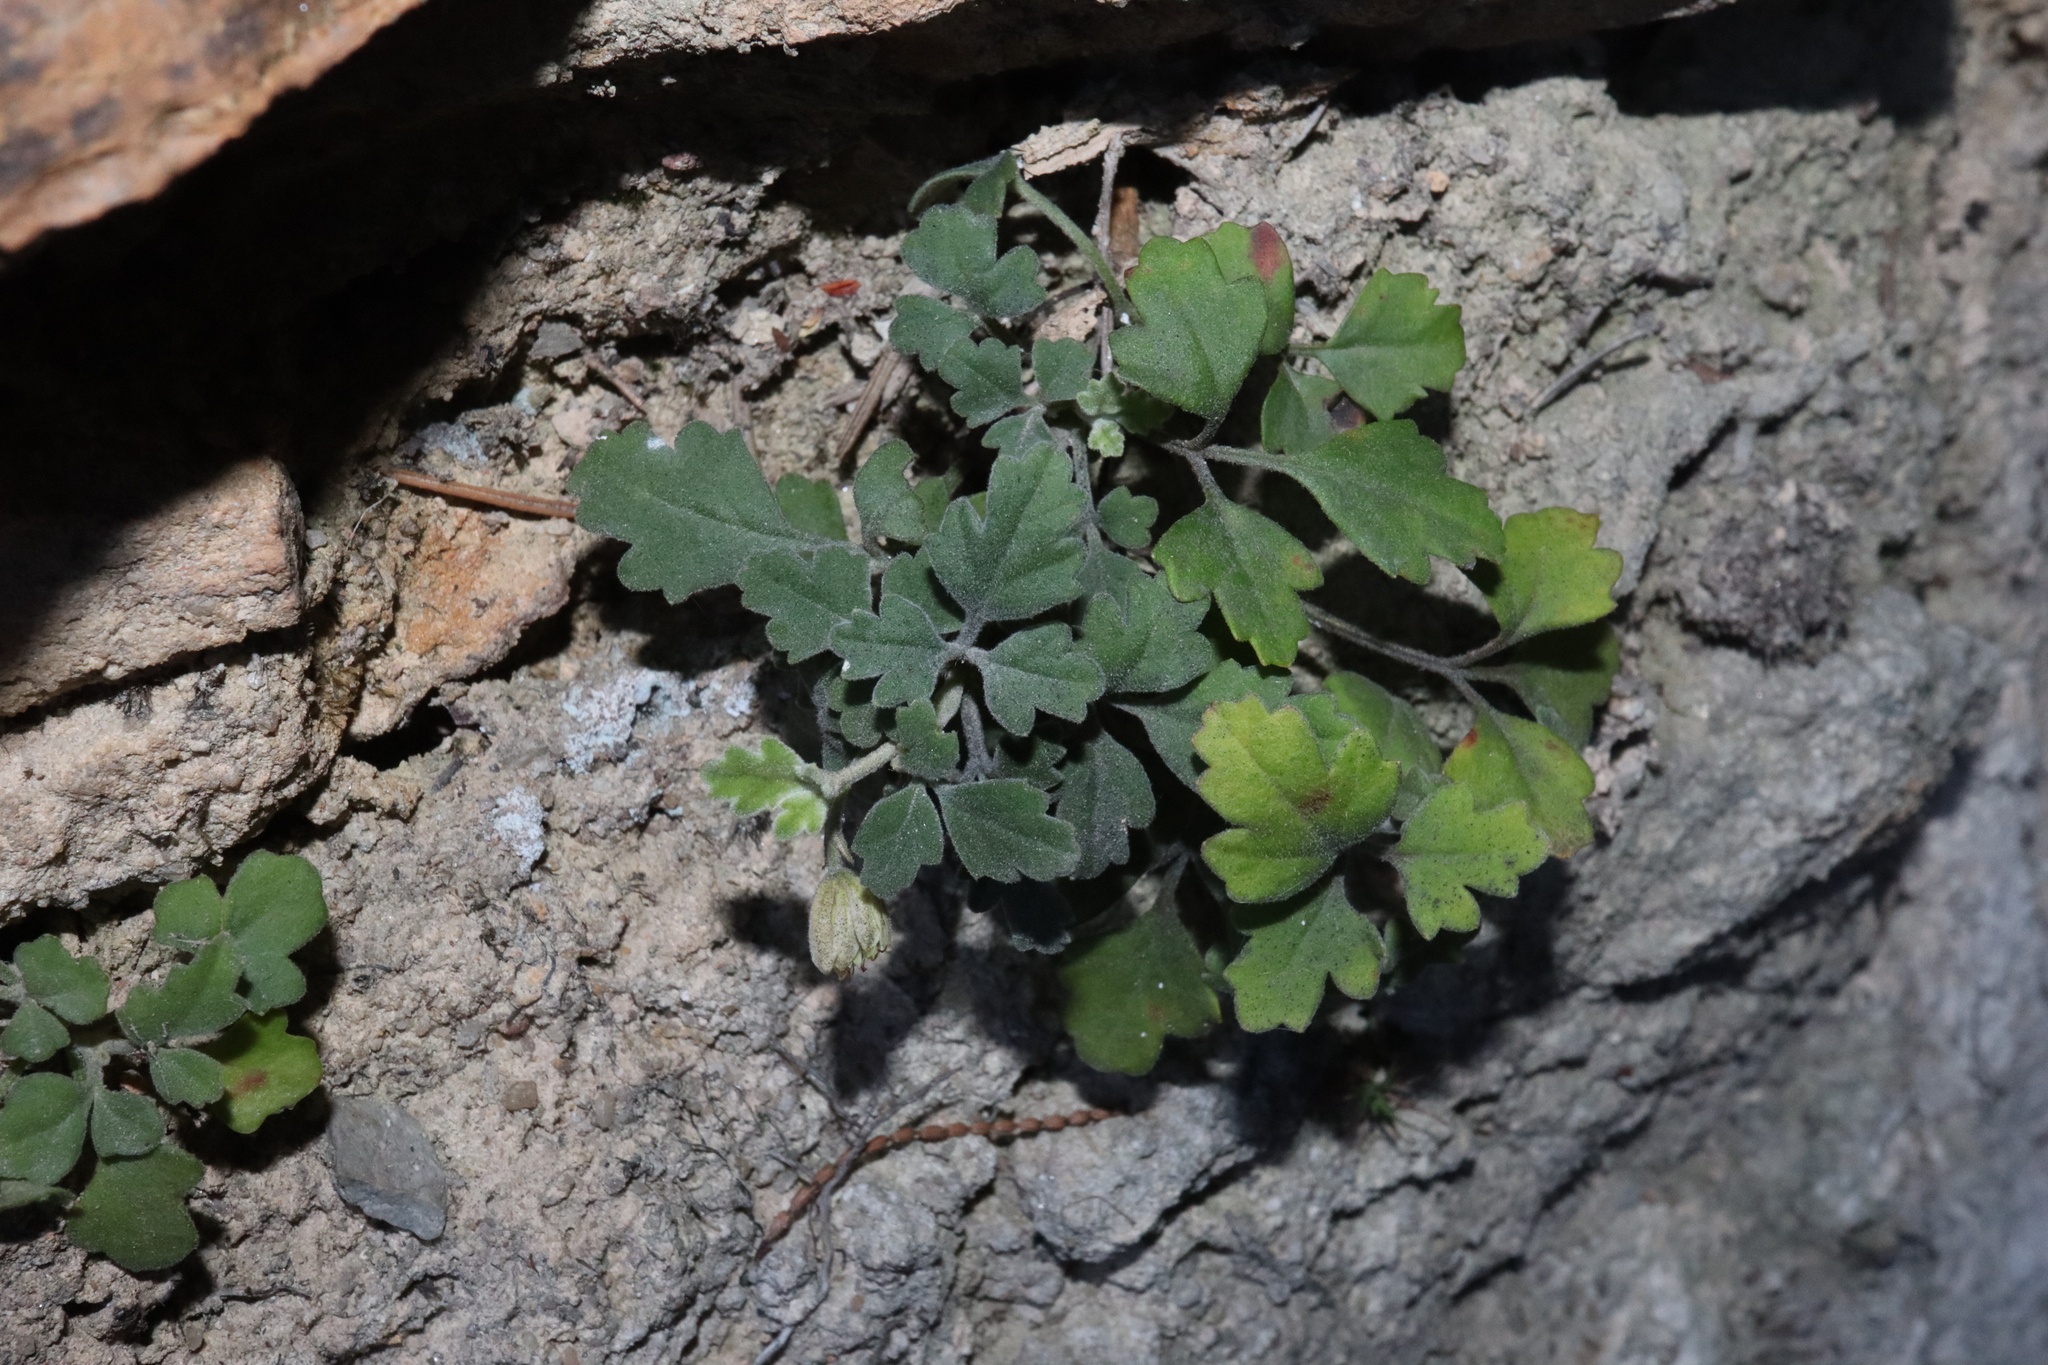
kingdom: Plantae
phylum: Tracheophyta
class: Magnoliopsida
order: Apiales
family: Apiaceae
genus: Xanthosia
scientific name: Xanthosia scopulicola
